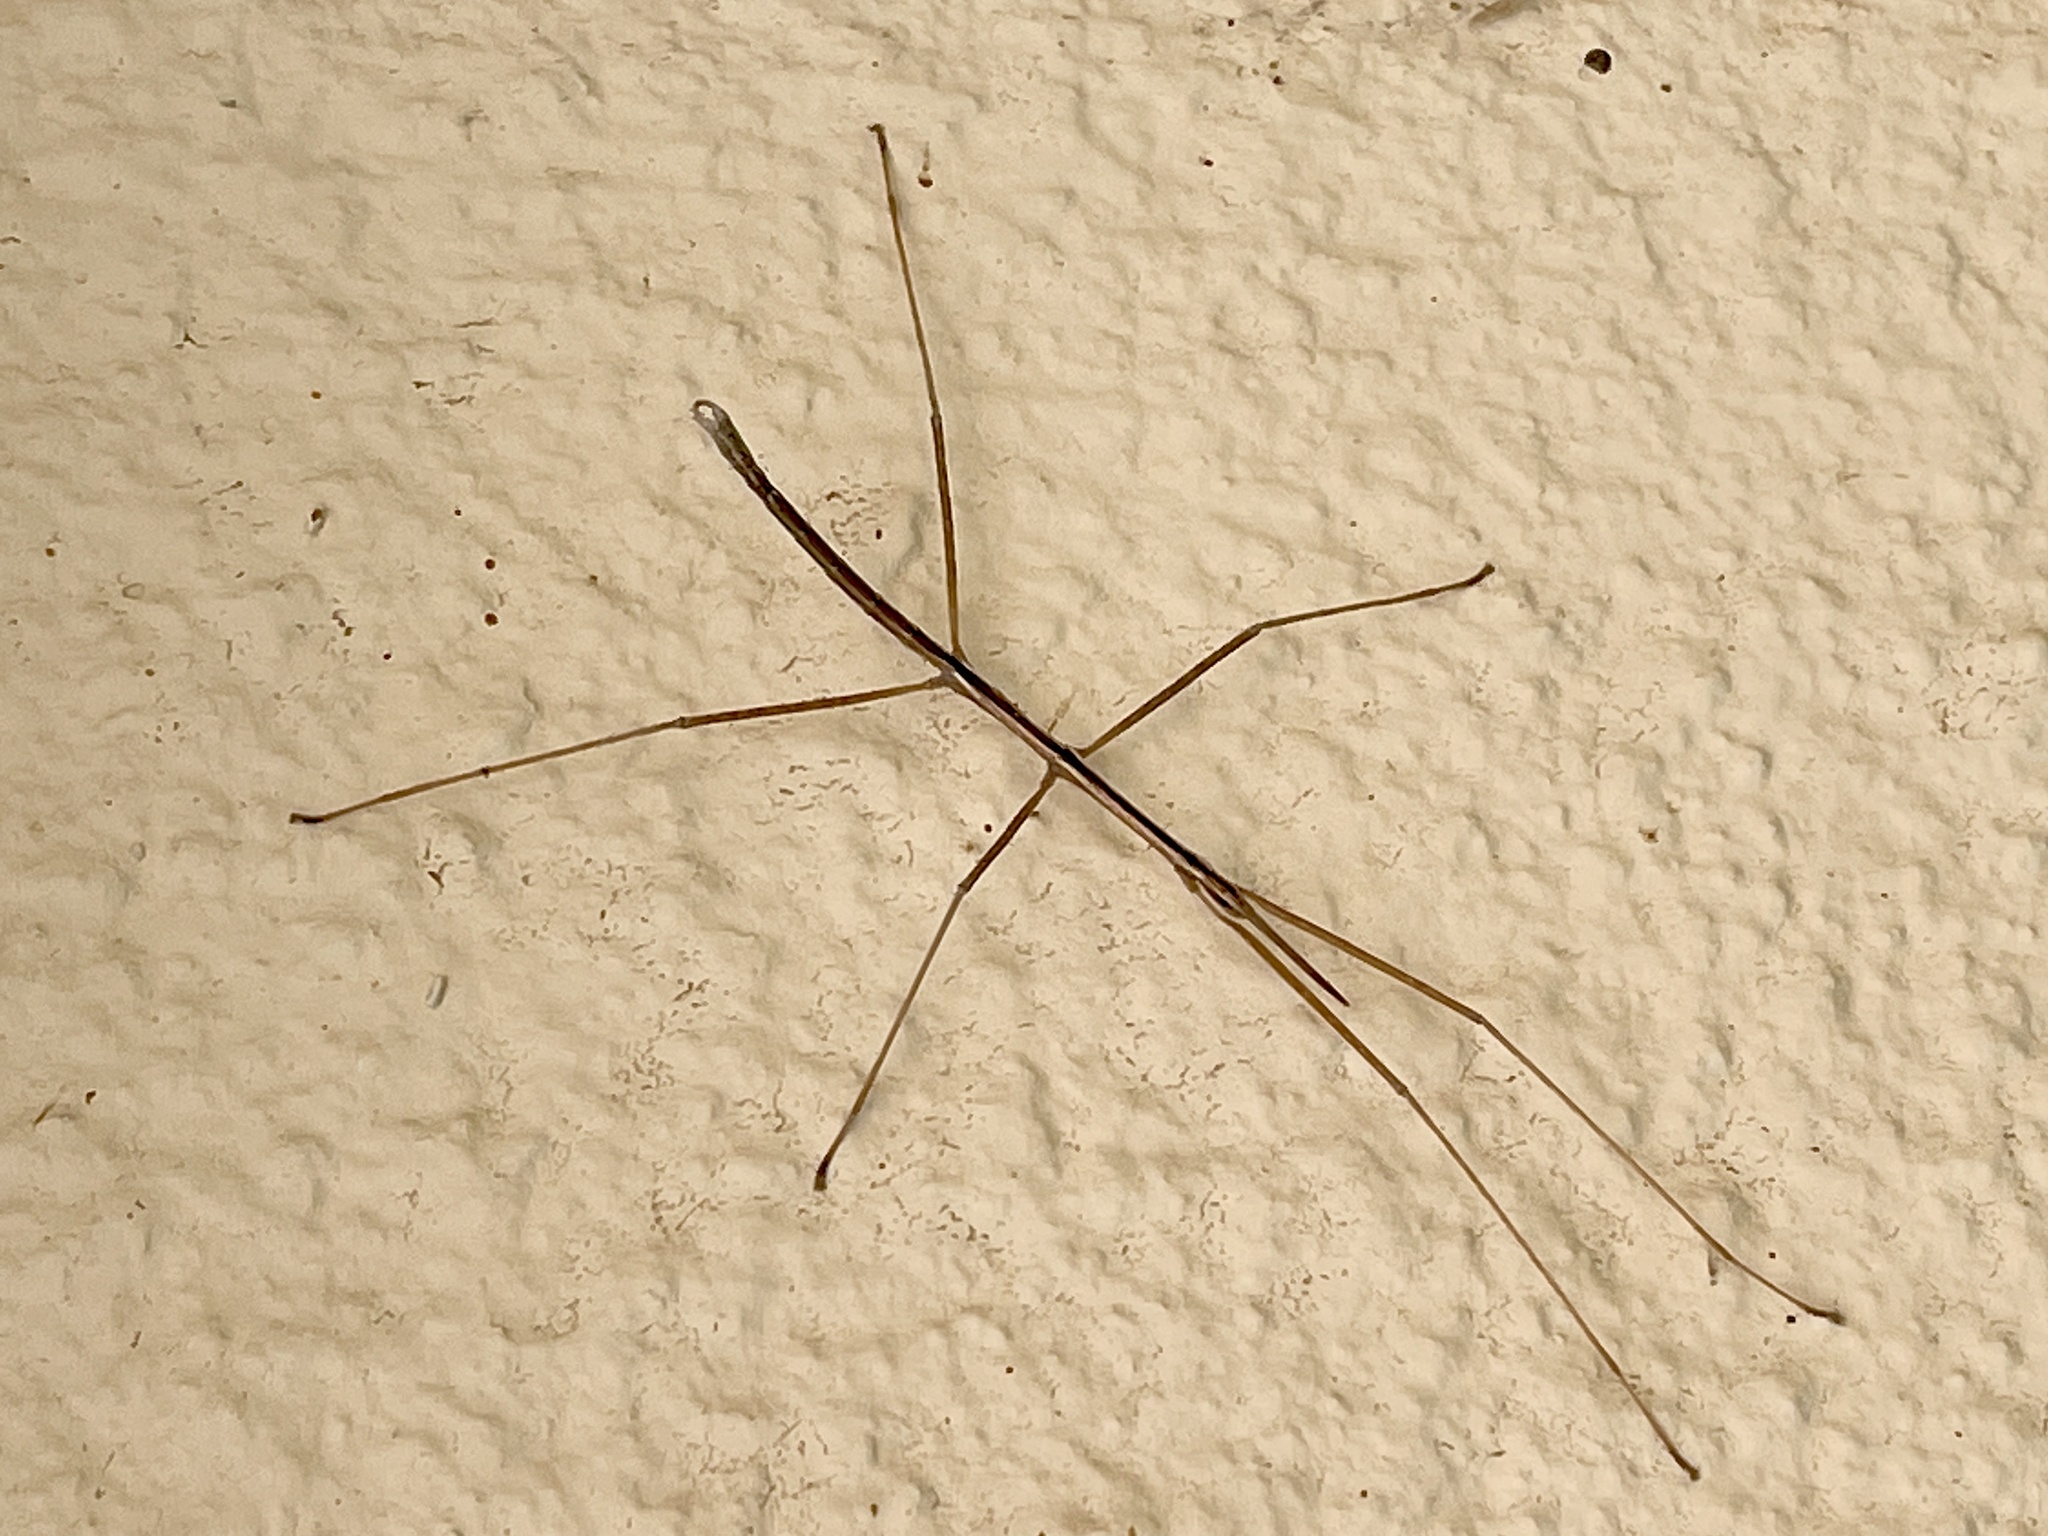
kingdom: Animalia
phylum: Arthropoda
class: Insecta
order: Phasmida
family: Heteronemiidae
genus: Parabacillus
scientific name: Parabacillus hesperus
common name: Western short-horned walkingstick
